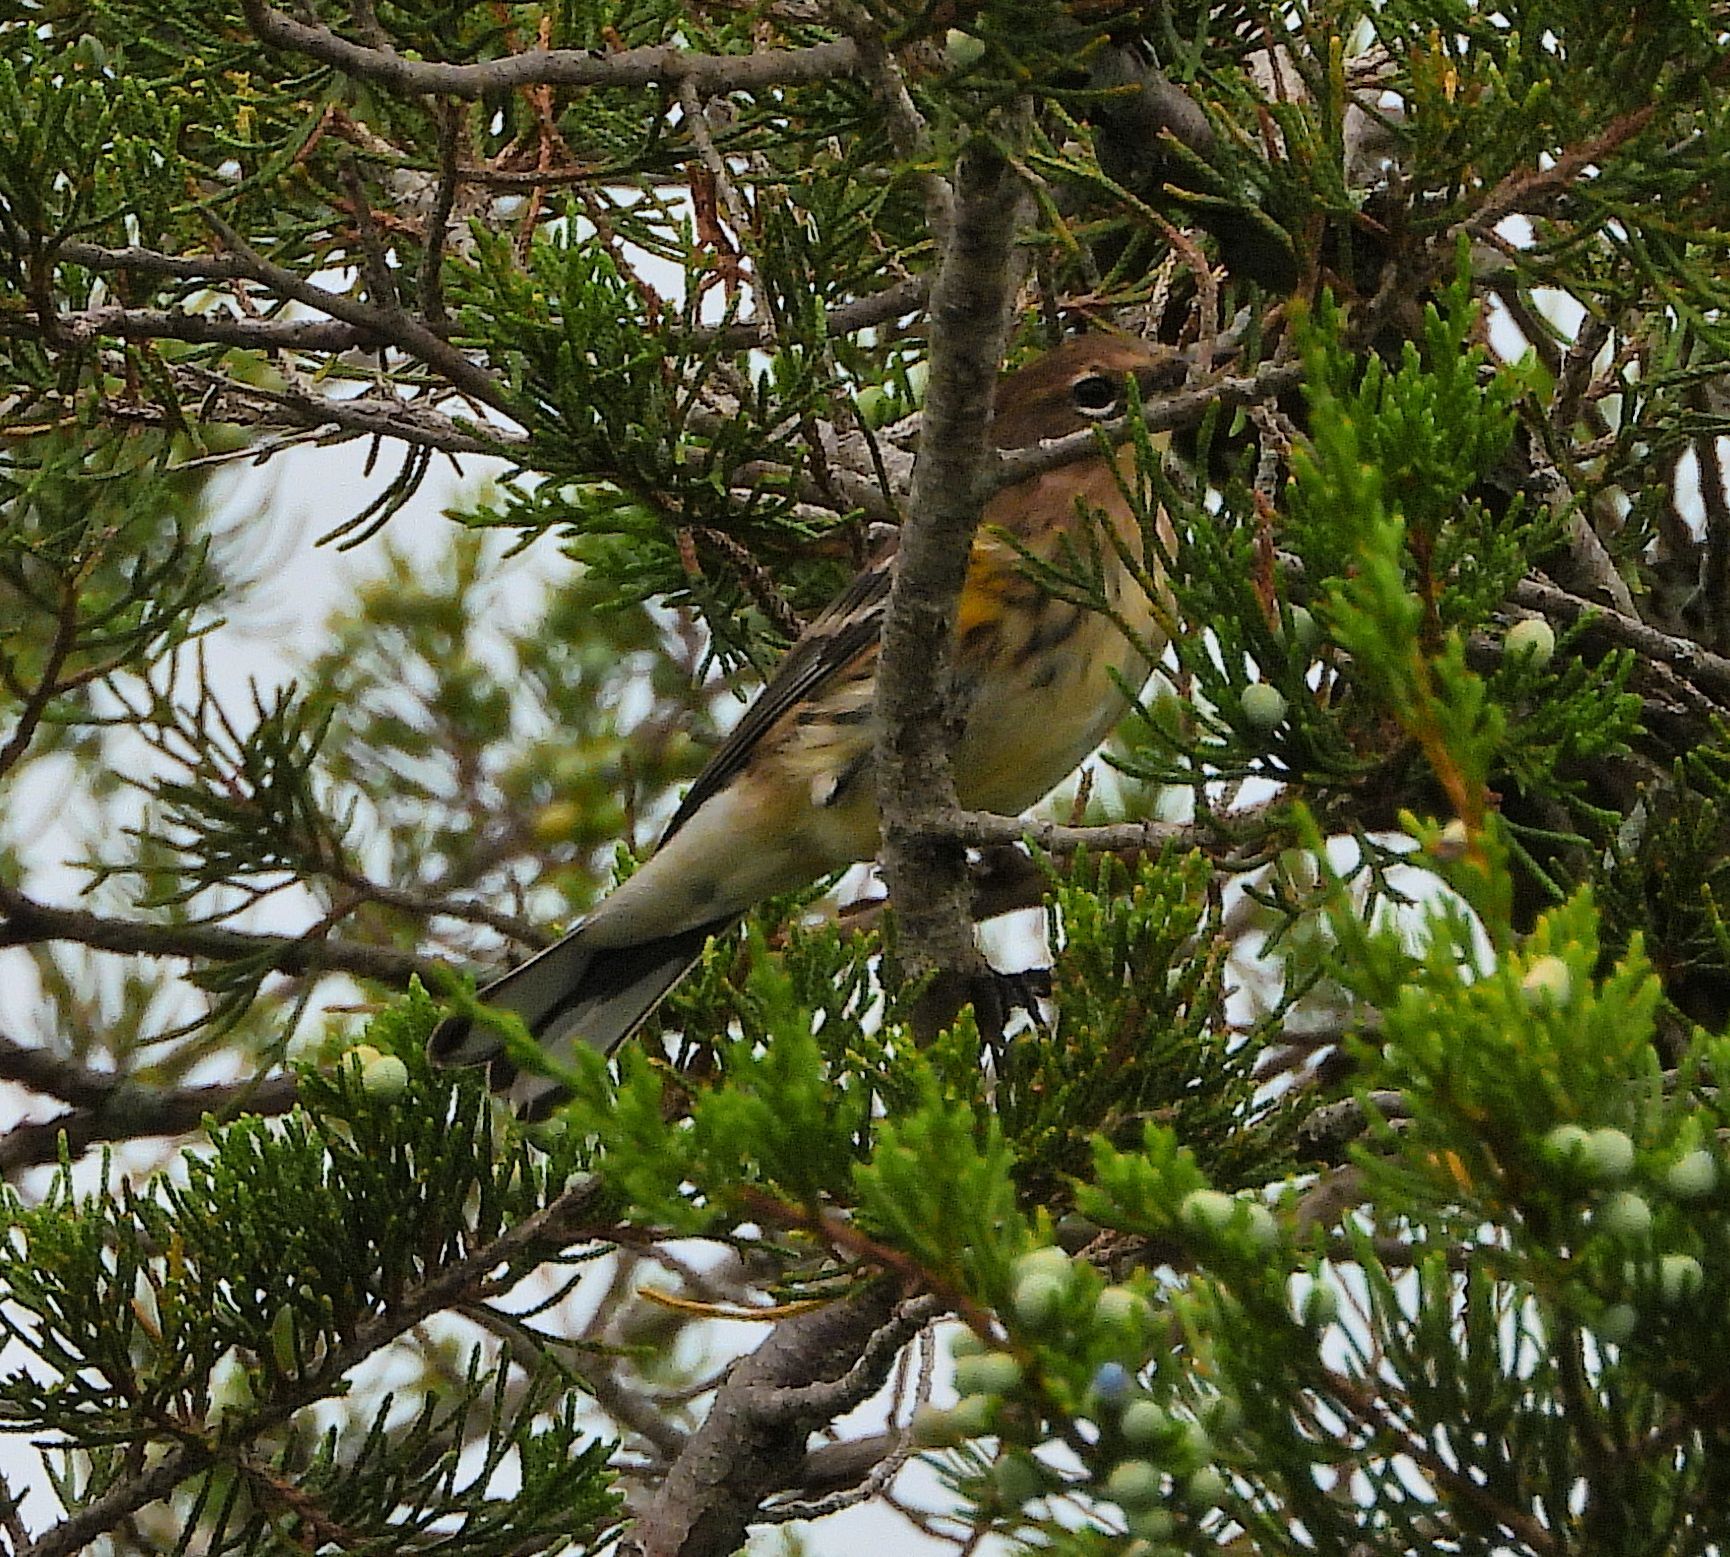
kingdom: Animalia
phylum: Chordata
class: Aves
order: Passeriformes
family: Parulidae
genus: Setophaga
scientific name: Setophaga coronata
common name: Myrtle warbler
